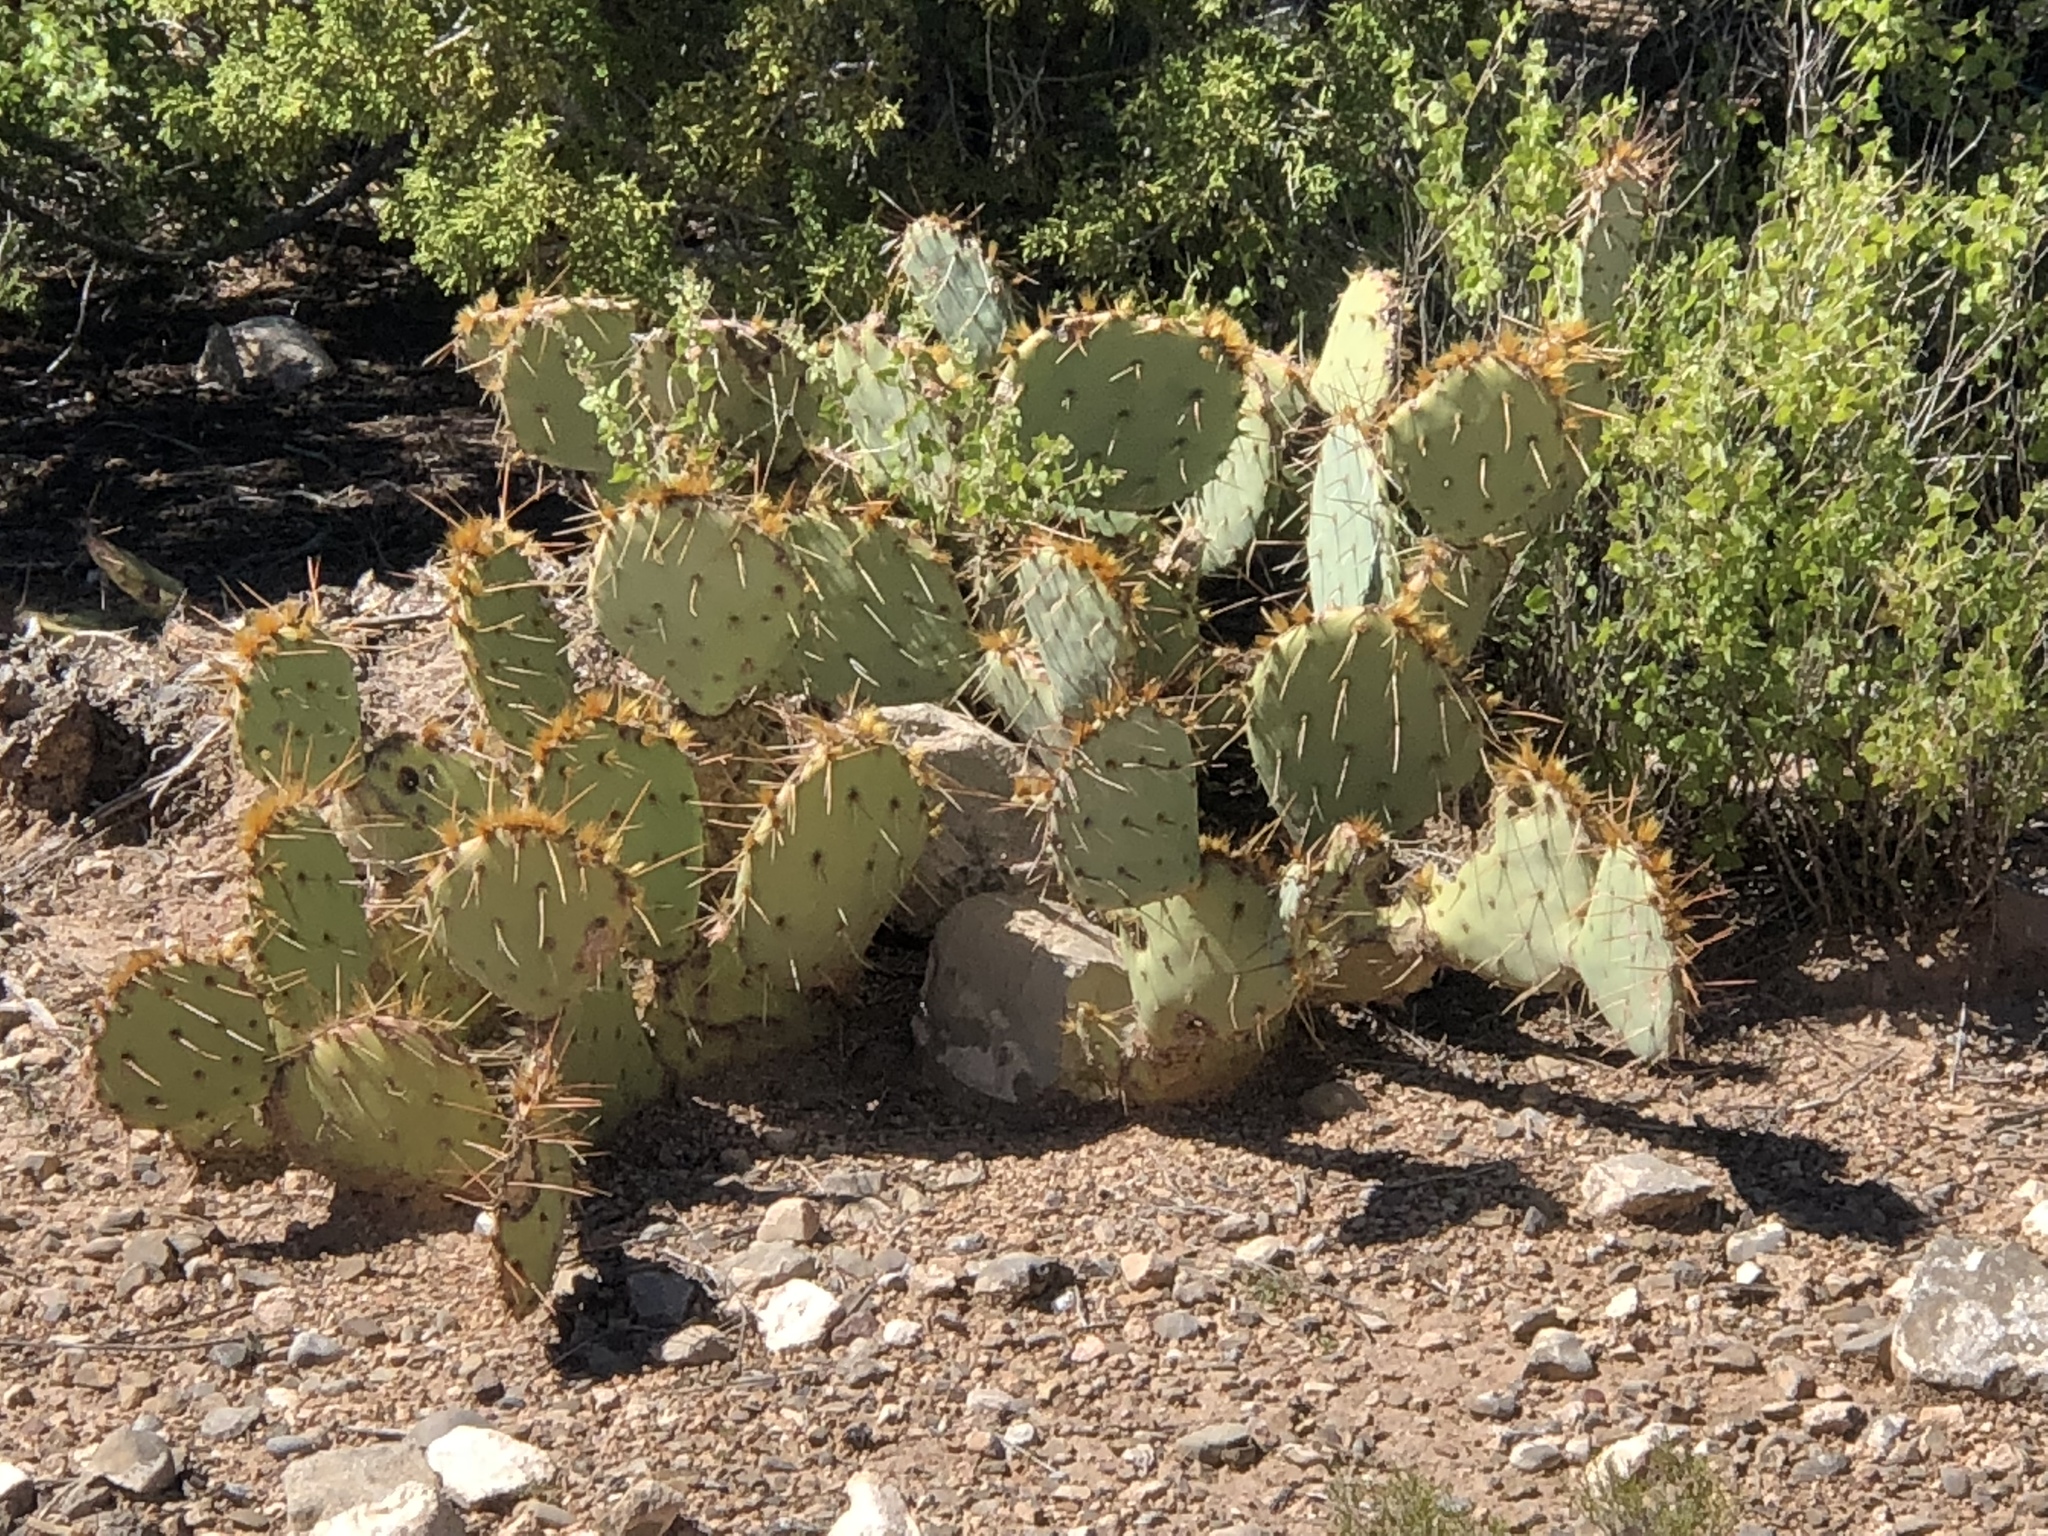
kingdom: Plantae
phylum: Tracheophyta
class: Magnoliopsida
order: Caryophyllales
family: Cactaceae
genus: Opuntia
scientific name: Opuntia engelmannii
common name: Cactus-apple
